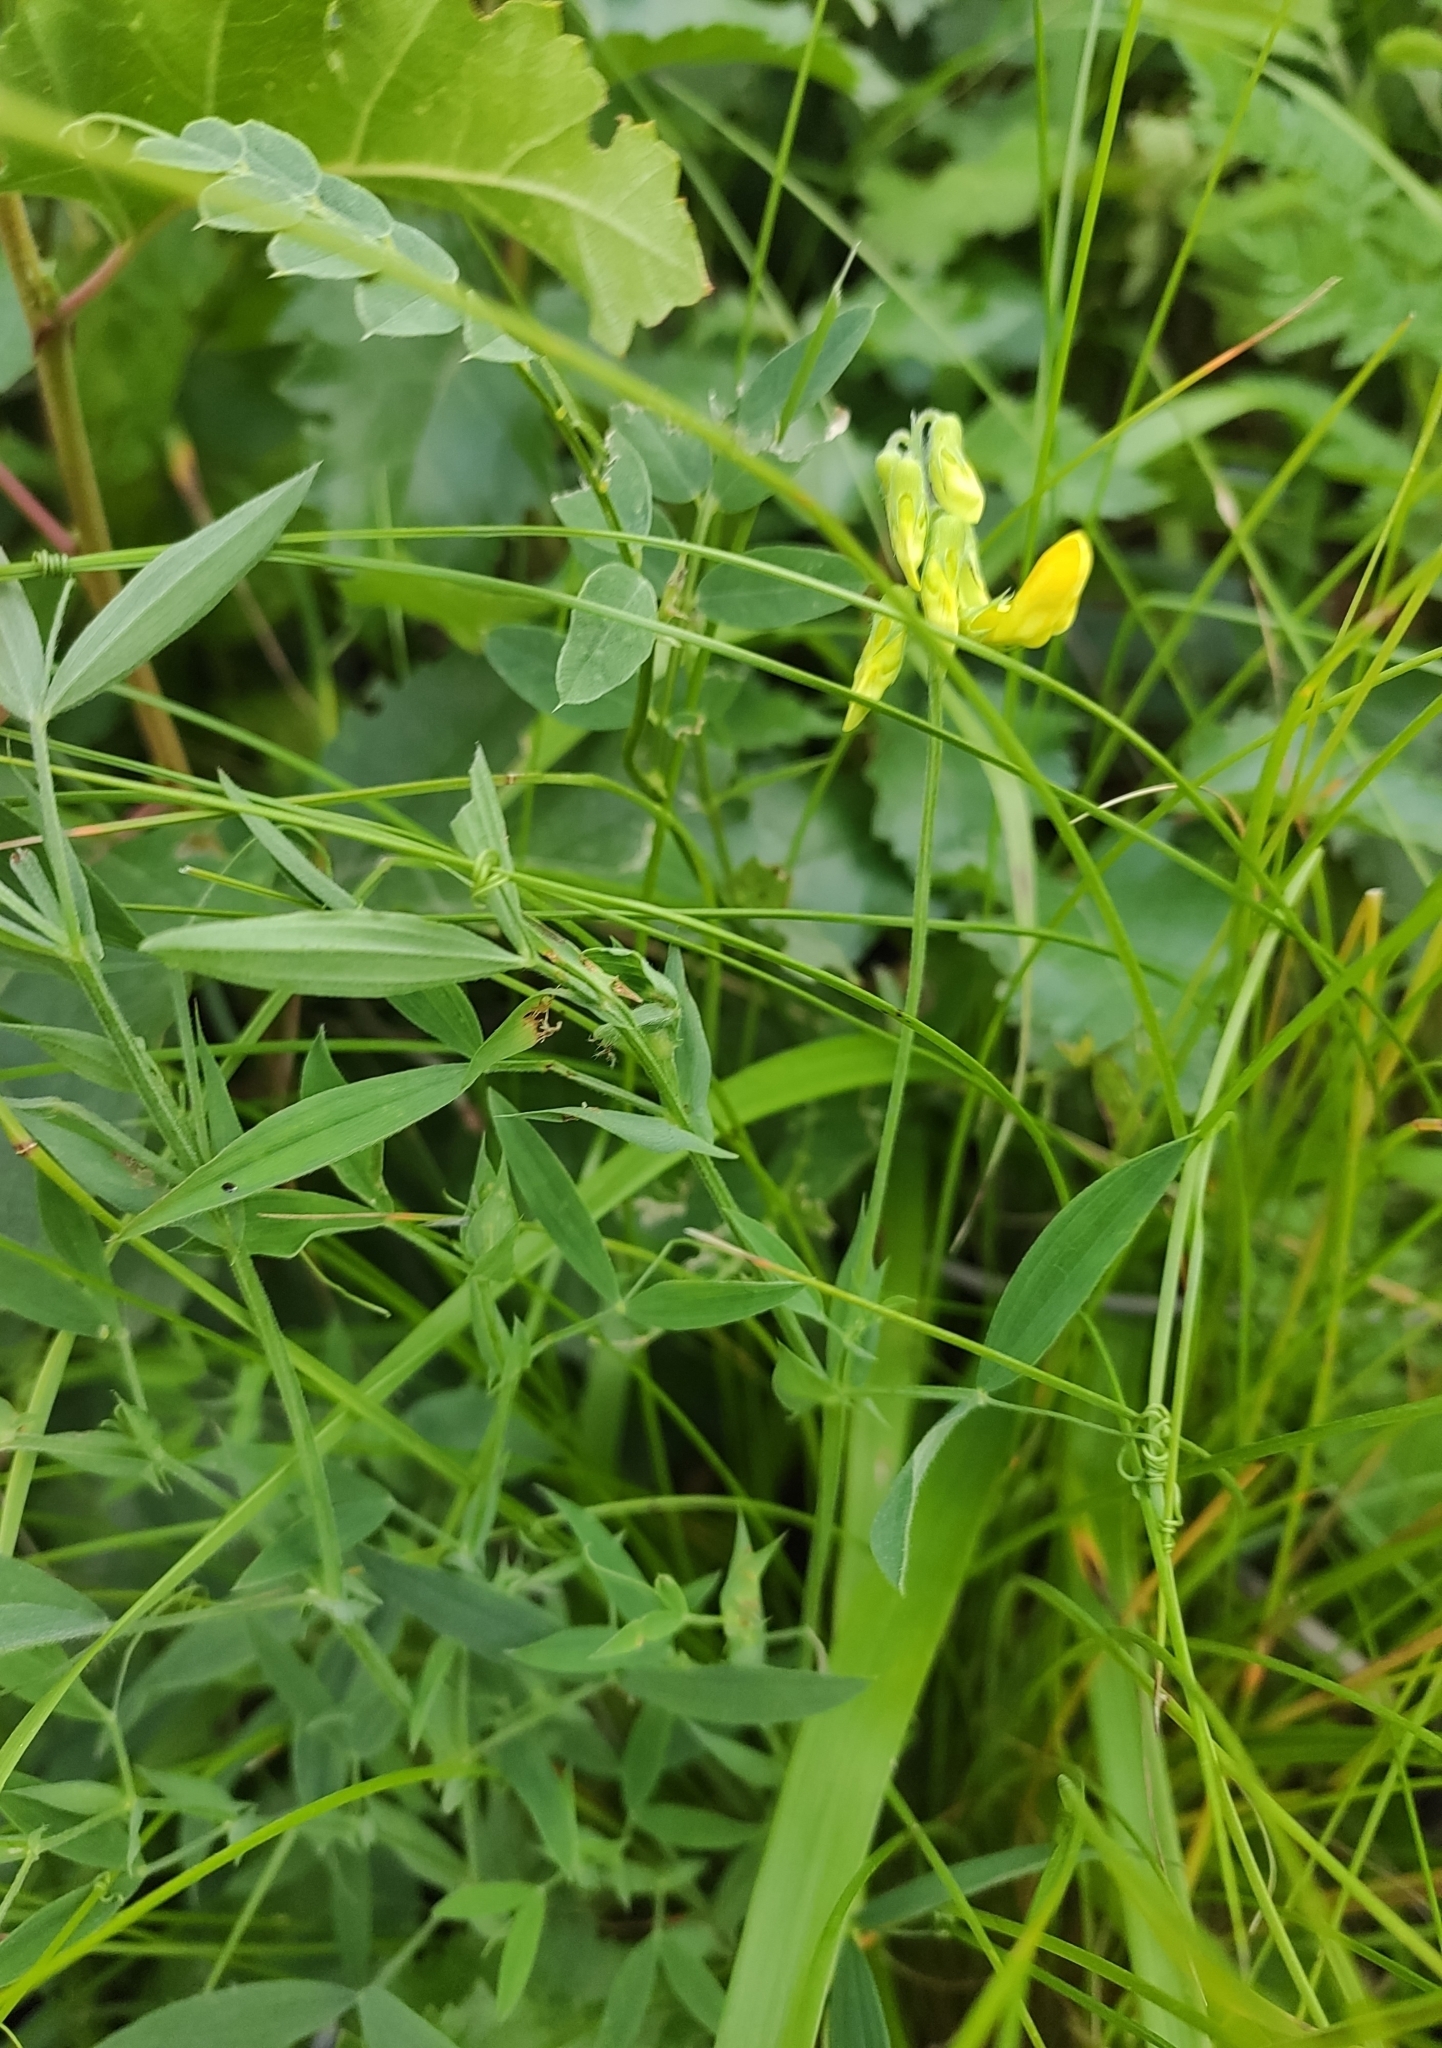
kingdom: Plantae
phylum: Tracheophyta
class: Magnoliopsida
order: Fabales
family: Fabaceae
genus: Lathyrus
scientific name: Lathyrus pratensis
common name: Meadow vetchling
